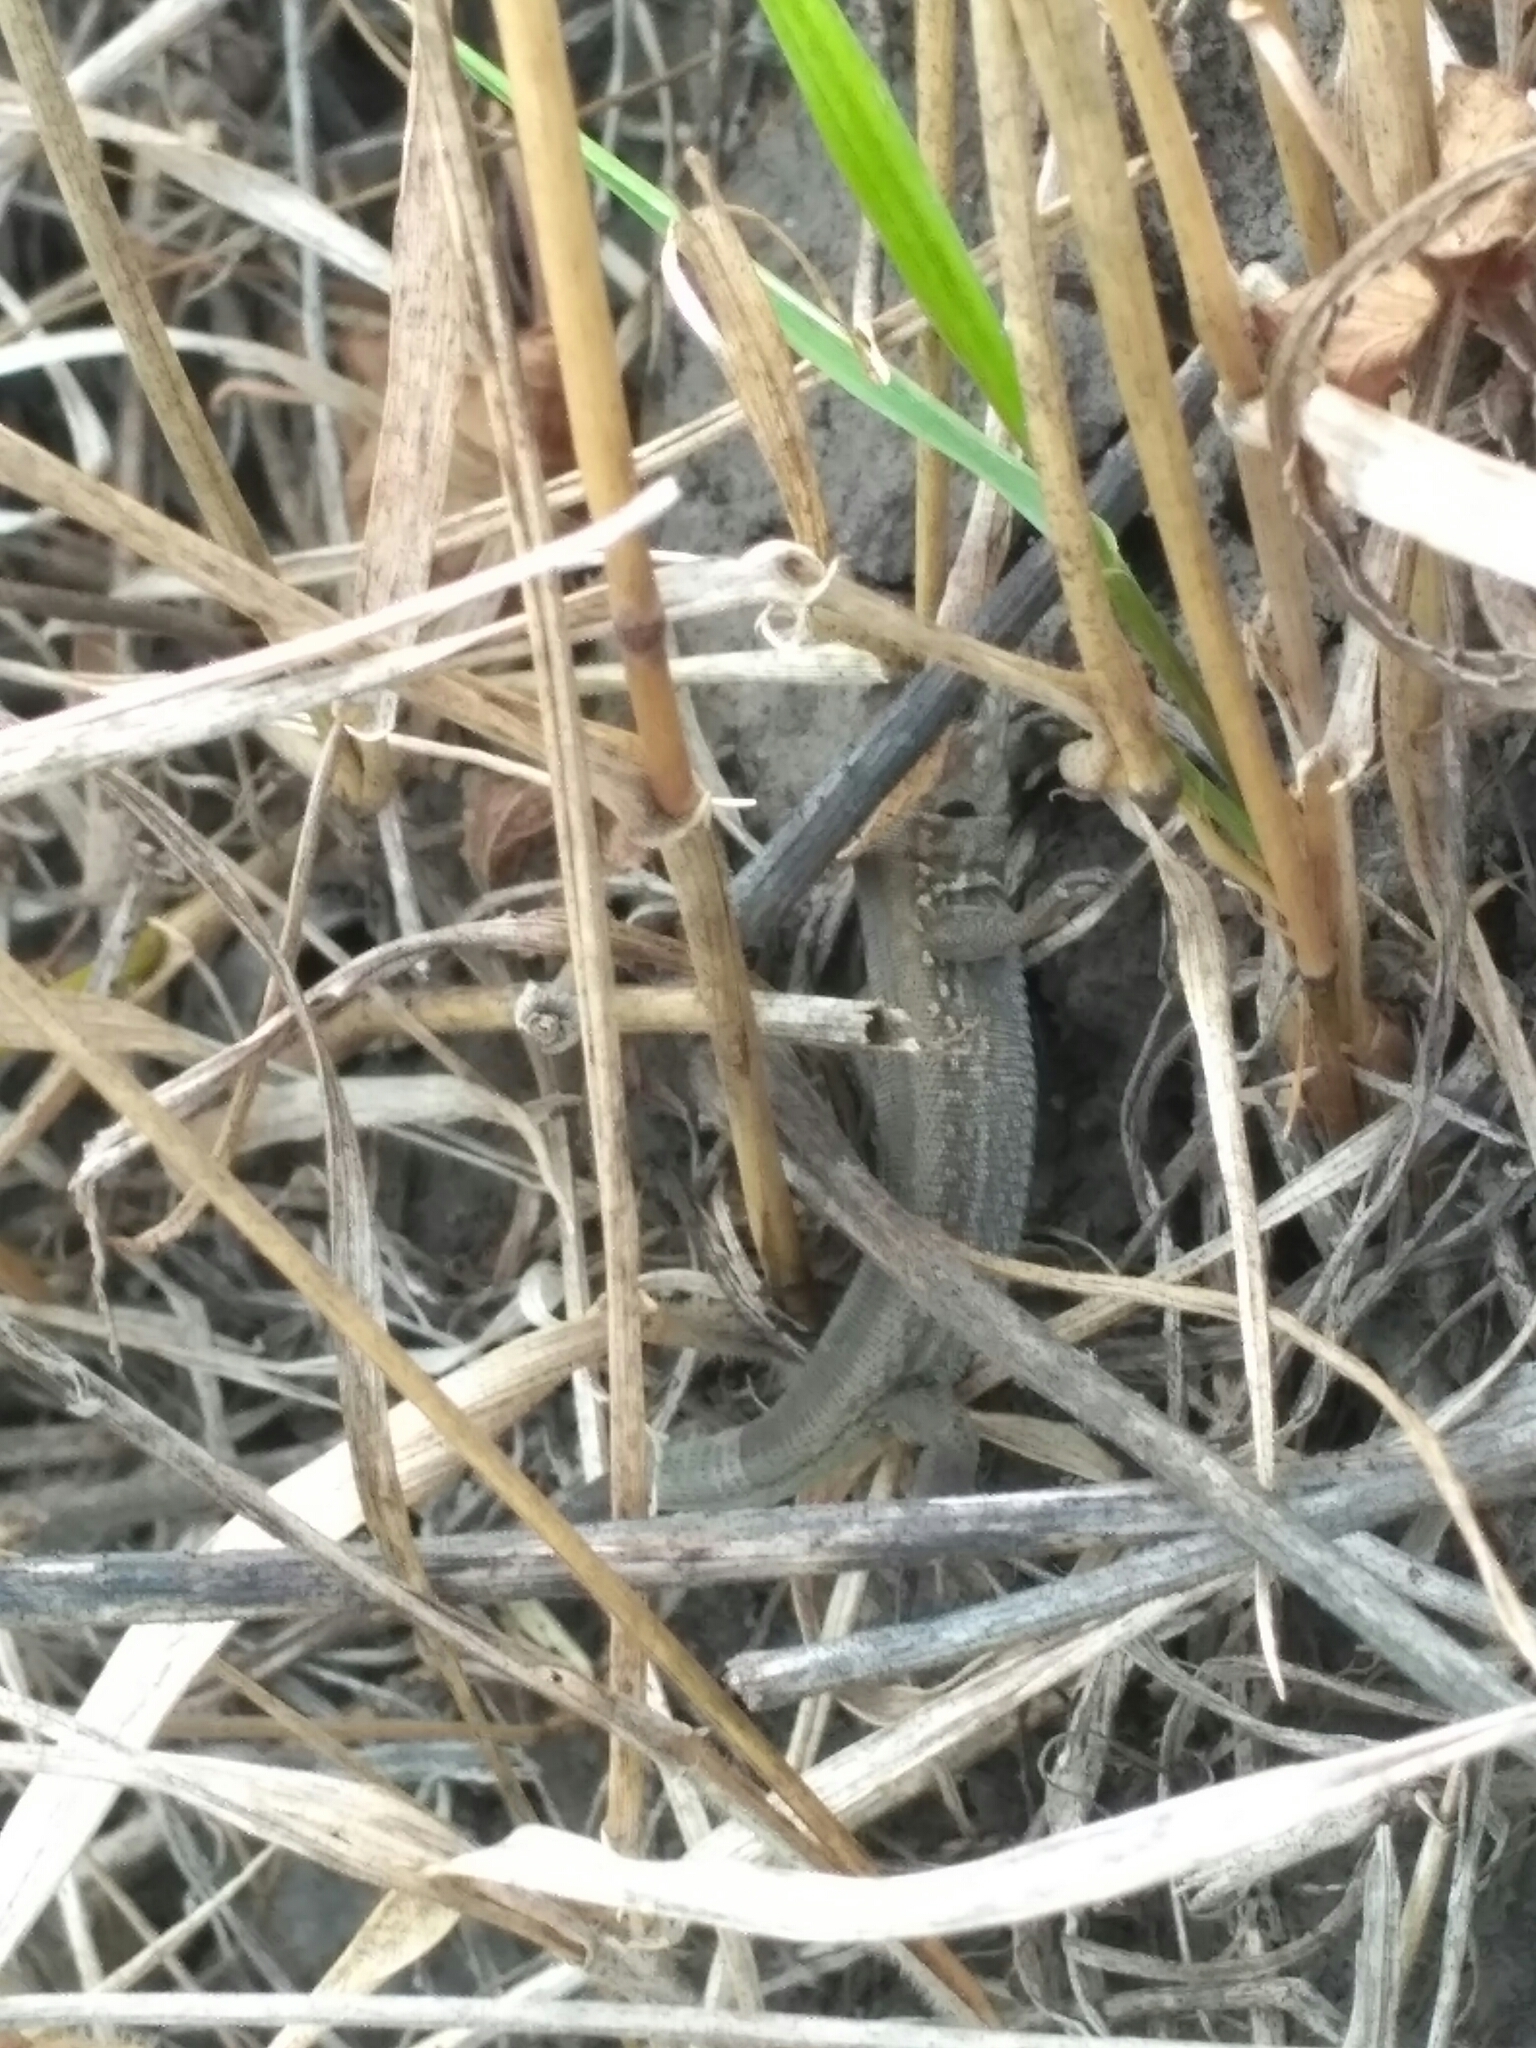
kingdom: Animalia
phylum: Chordata
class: Squamata
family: Lacertidae
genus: Lacerta
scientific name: Lacerta agilis
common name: Sand lizard
